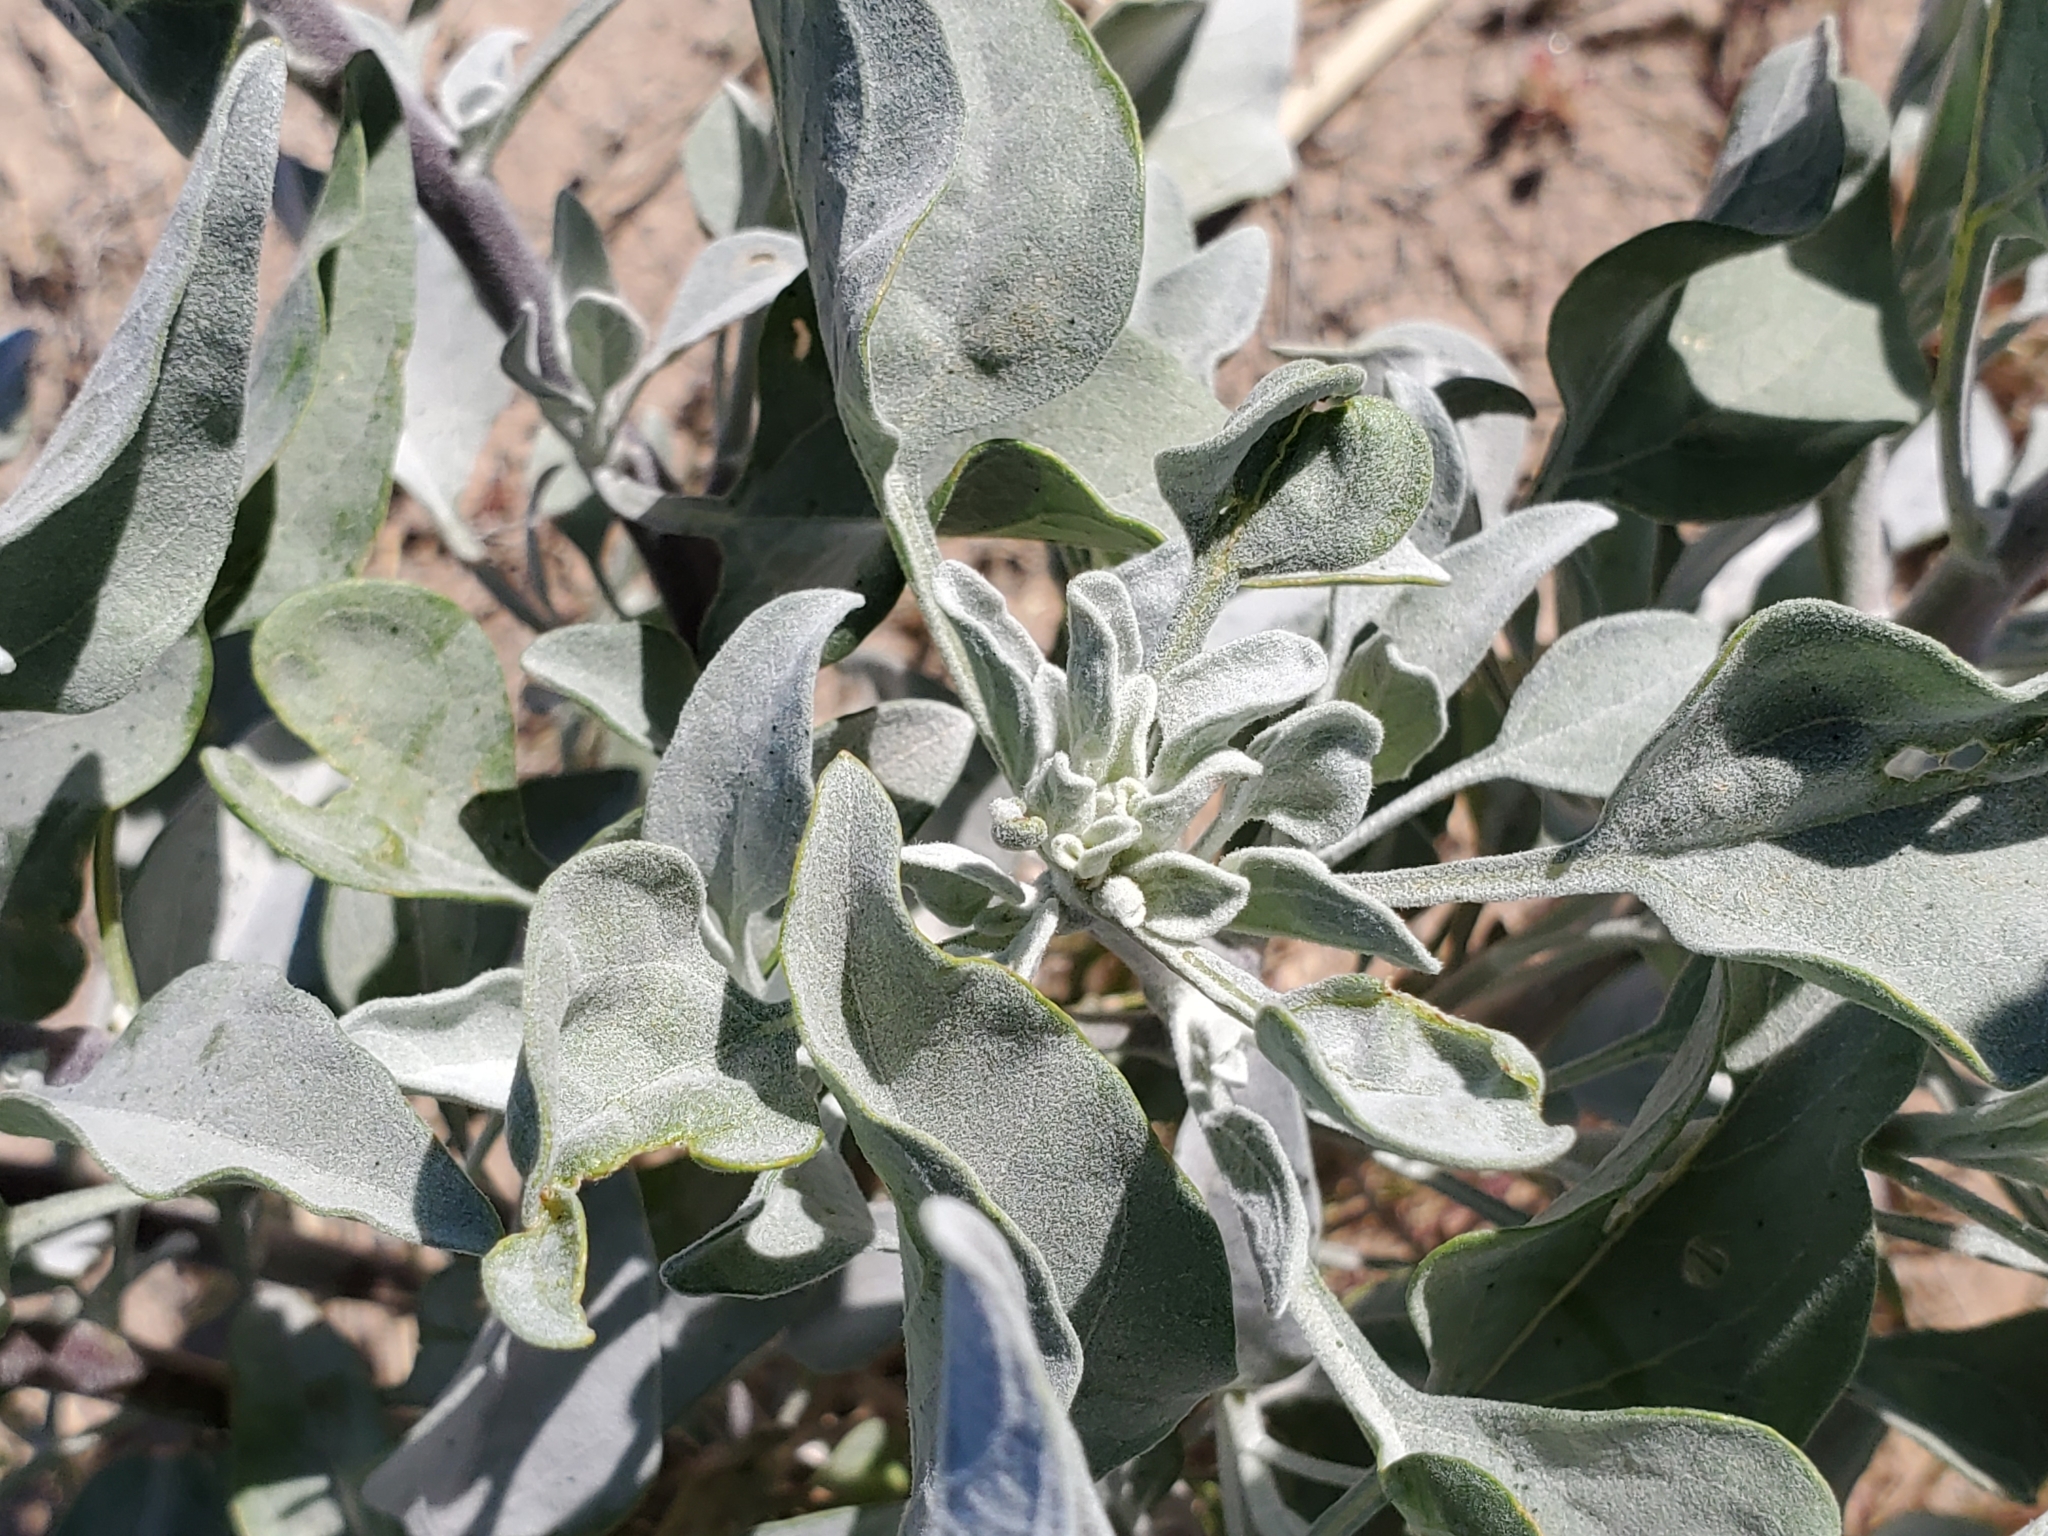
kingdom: Plantae
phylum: Tracheophyta
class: Magnoliopsida
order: Asterales
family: Asteraceae
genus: Encelia
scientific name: Encelia farinosa
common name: Brittlebush
